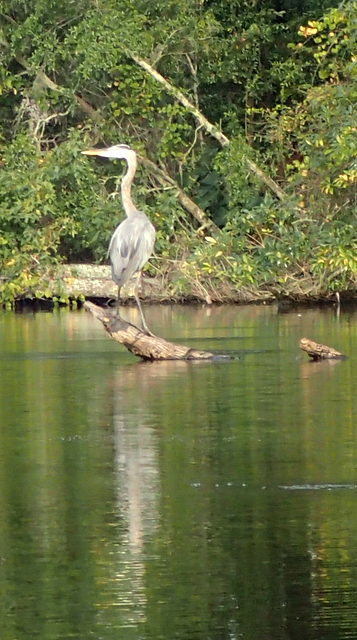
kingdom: Animalia
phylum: Chordata
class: Aves
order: Pelecaniformes
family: Ardeidae
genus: Ardea
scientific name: Ardea herodias
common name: Great blue heron
